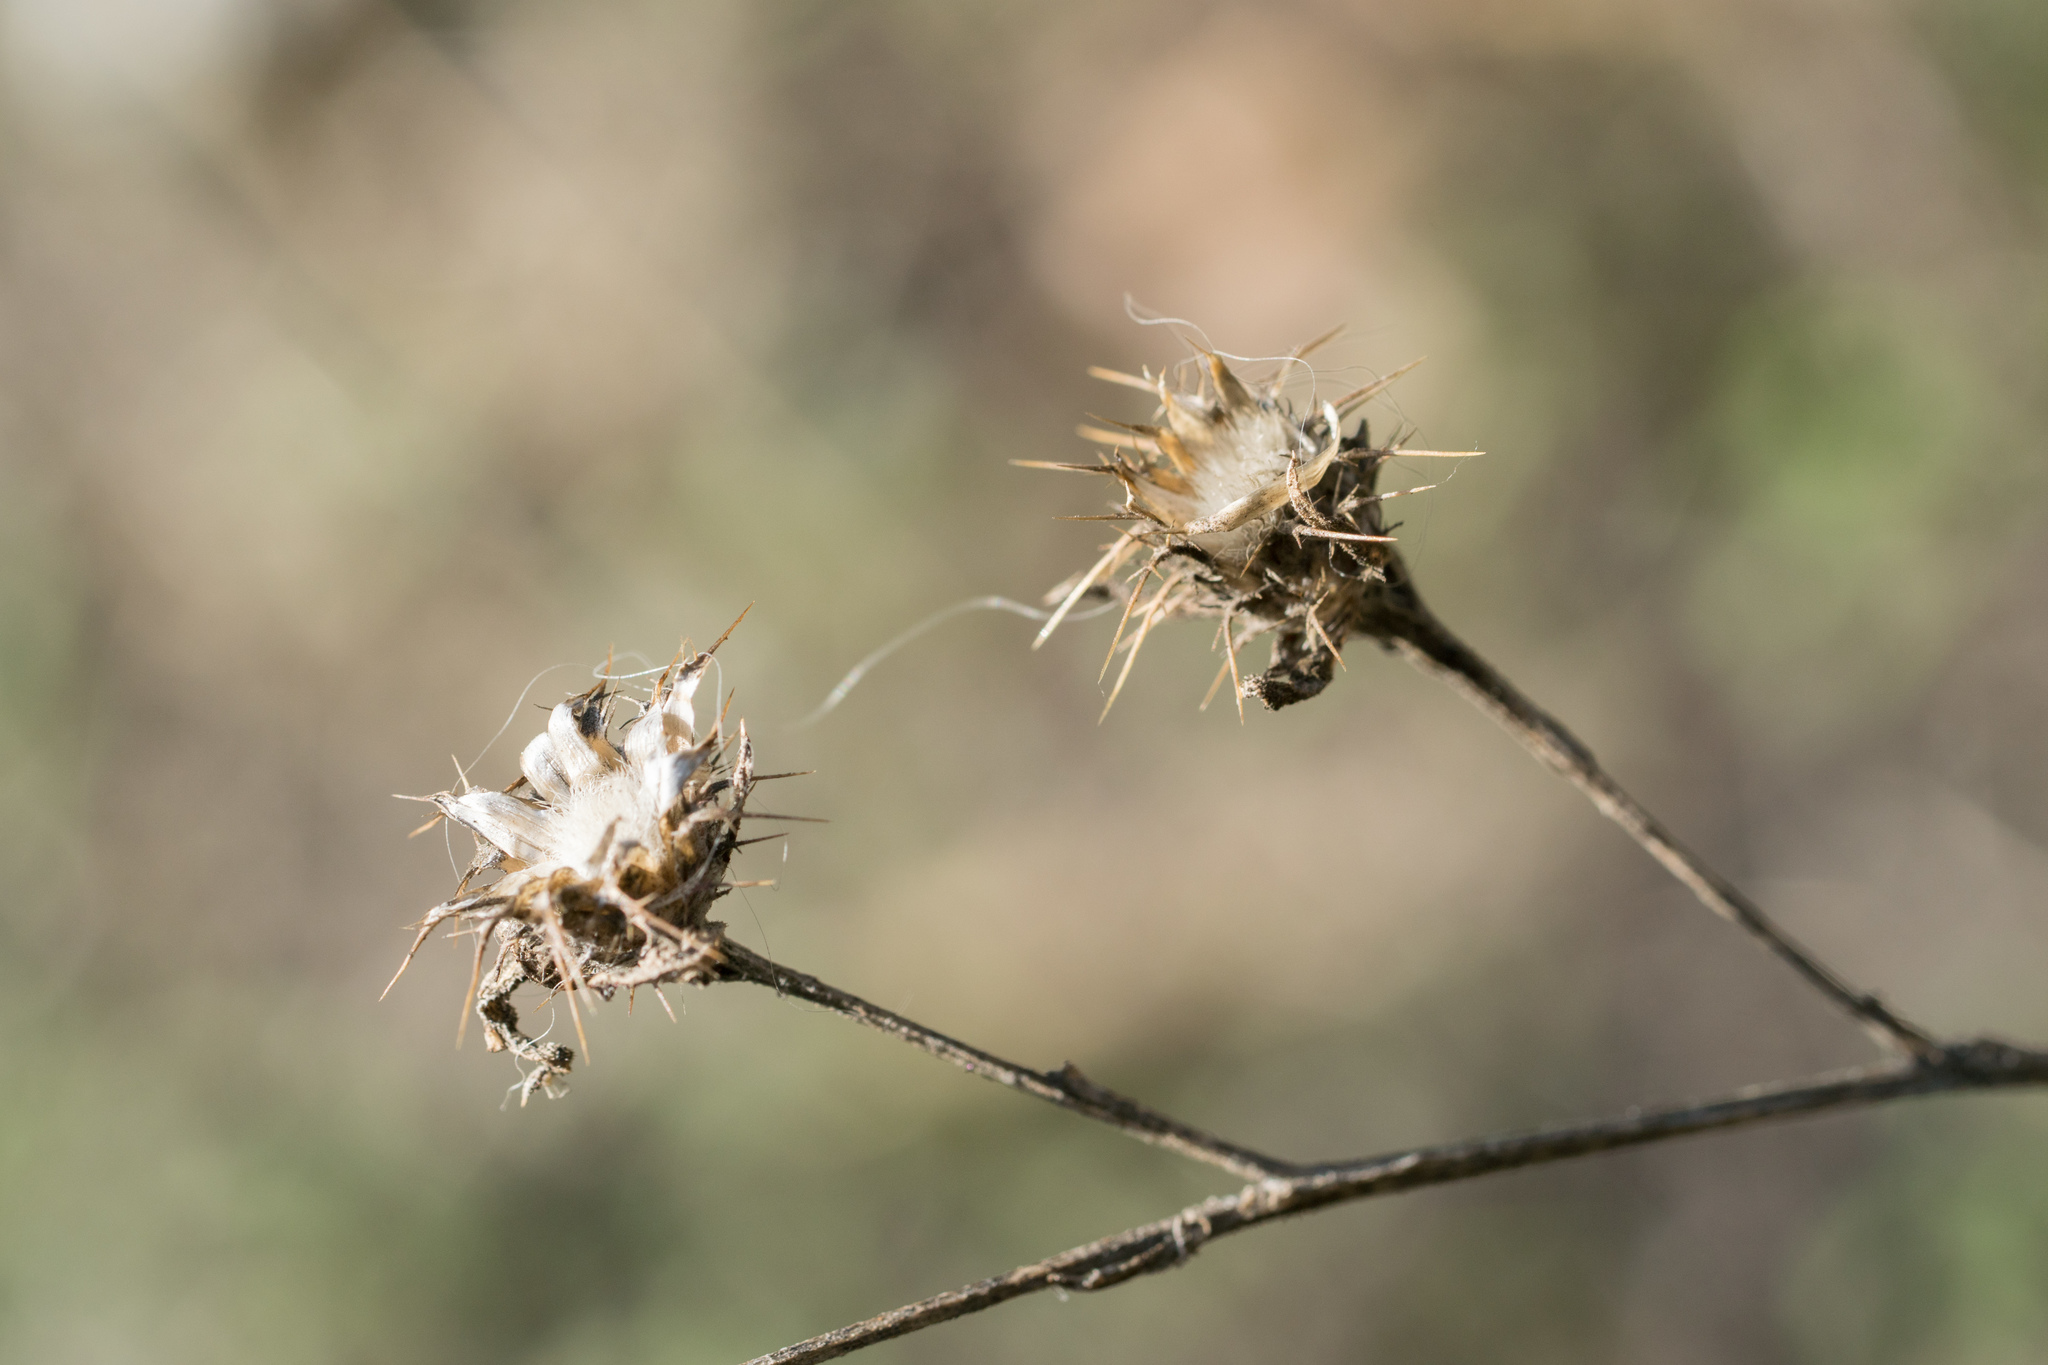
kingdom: Plantae
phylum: Tracheophyta
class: Magnoliopsida
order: Asterales
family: Asteraceae
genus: Centaurea
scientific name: Centaurea melitensis
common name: Maltese star-thistle
